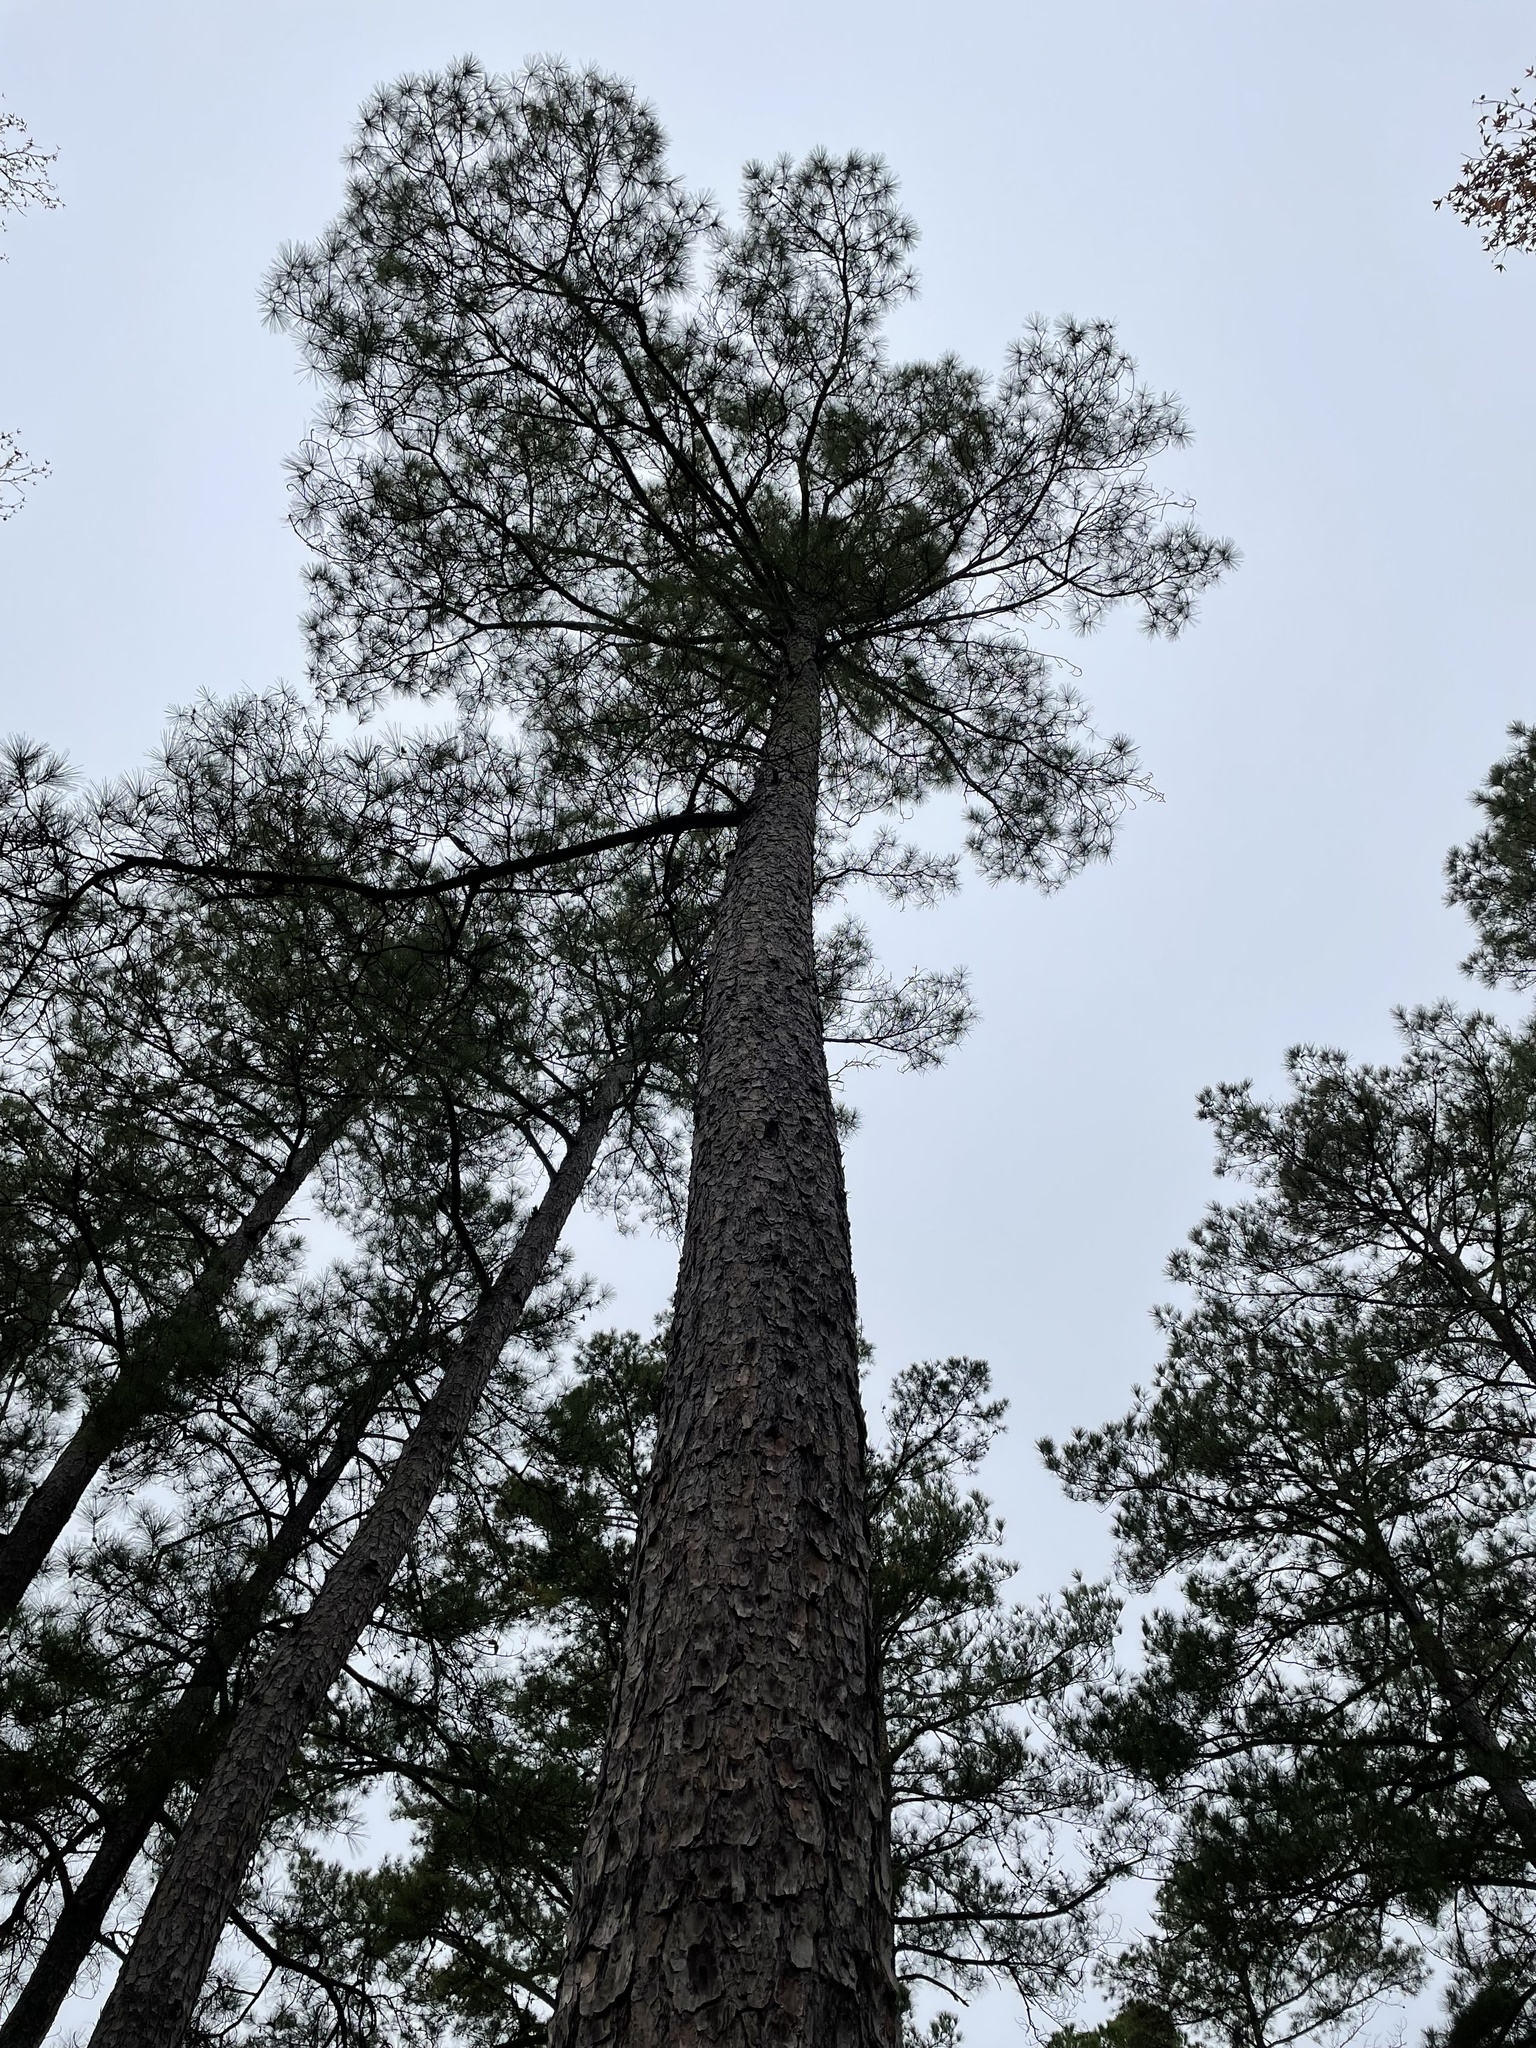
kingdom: Plantae
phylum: Tracheophyta
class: Pinopsida
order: Pinales
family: Pinaceae
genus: Pinus
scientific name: Pinus taeda
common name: Loblolly pine
